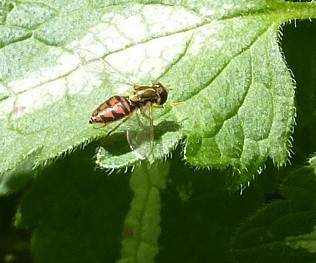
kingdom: Animalia
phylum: Arthropoda
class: Insecta
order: Diptera
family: Syrphidae
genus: Toxomerus
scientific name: Toxomerus marginatus
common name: Syrphid fly
